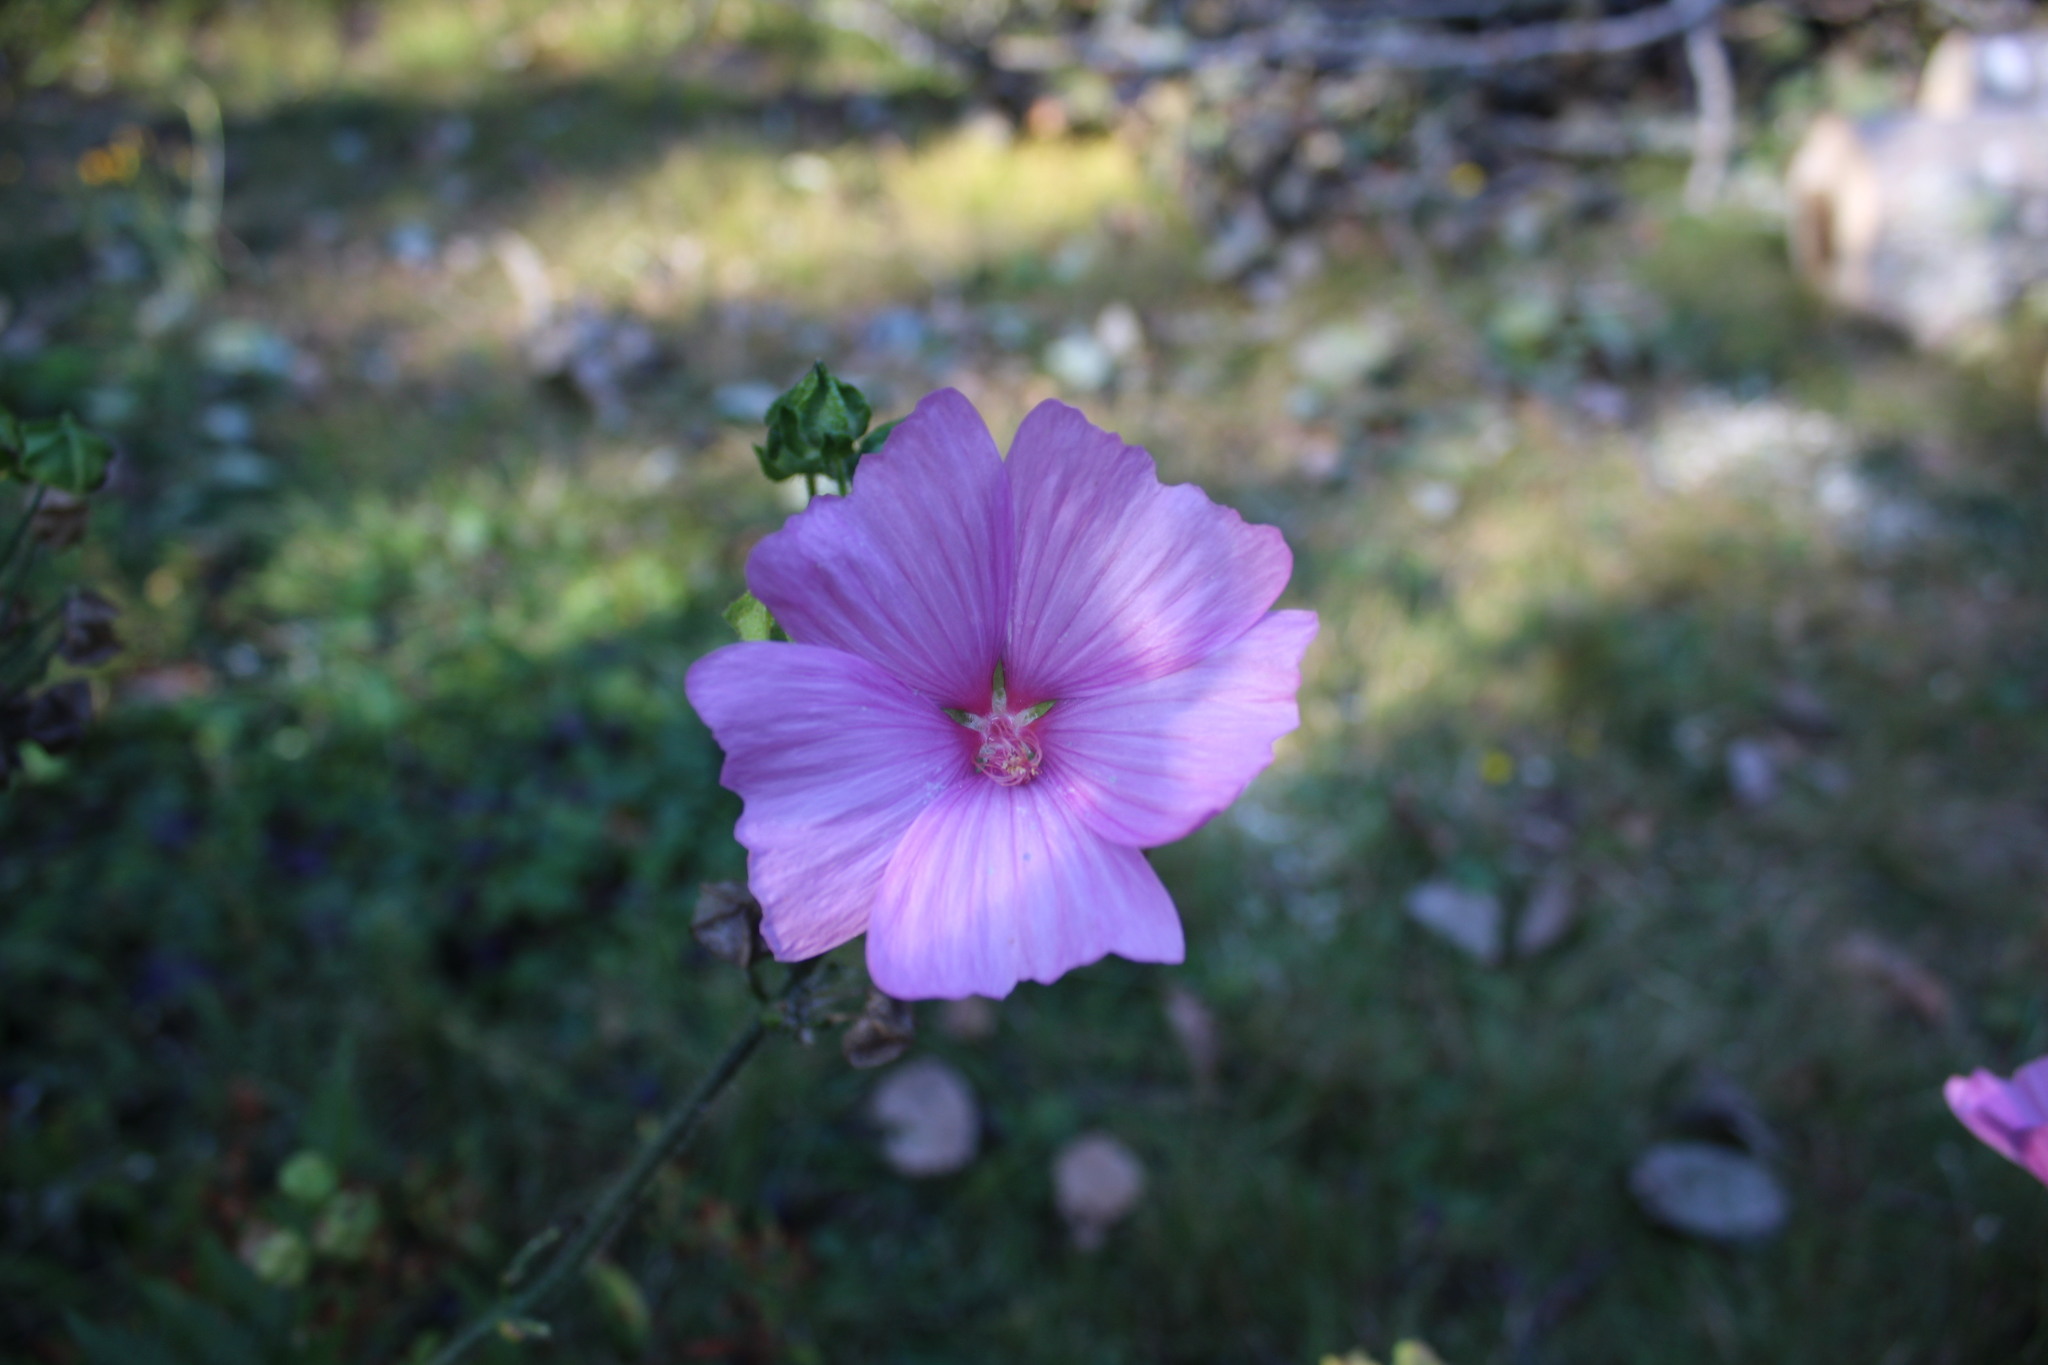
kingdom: Plantae
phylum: Tracheophyta
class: Magnoliopsida
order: Malvales
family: Malvaceae
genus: Malva
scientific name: Malva moschata
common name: Musk mallow
